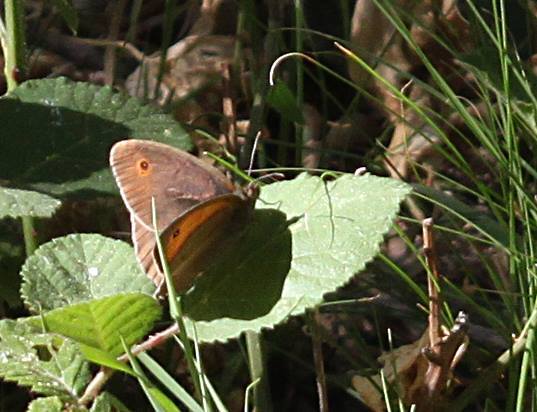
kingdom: Animalia
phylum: Arthropoda
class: Insecta
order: Lepidoptera
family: Nymphalidae
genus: Maniola
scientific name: Maniola jurtina
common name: Meadow brown
